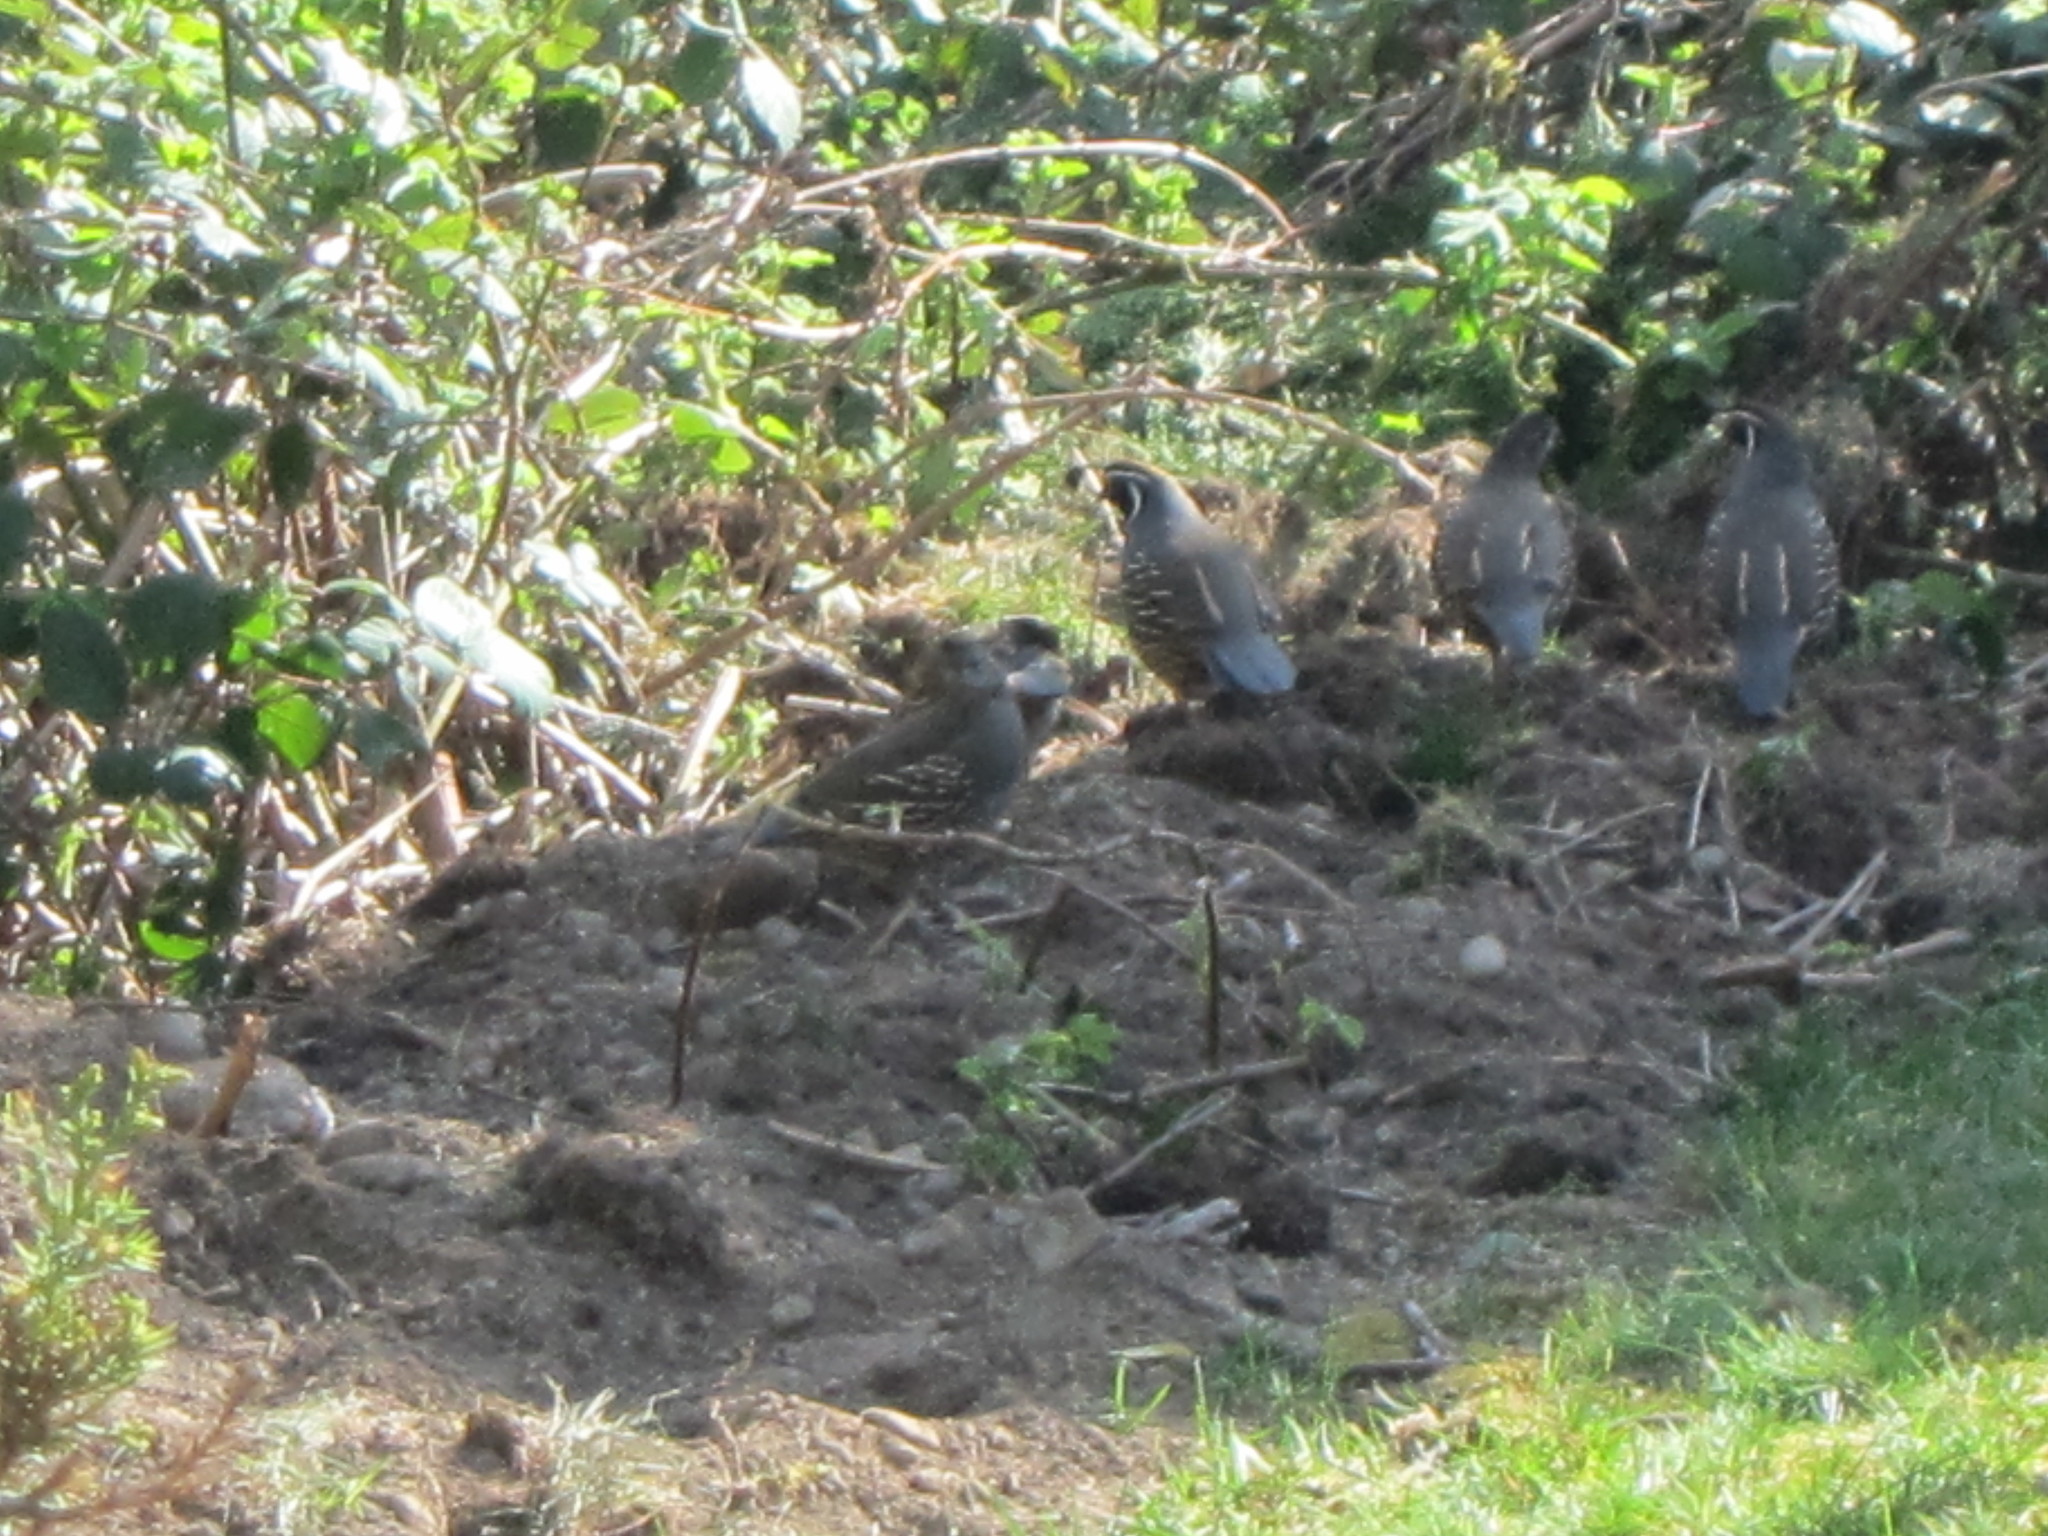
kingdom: Animalia
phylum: Chordata
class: Aves
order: Galliformes
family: Odontophoridae
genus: Callipepla
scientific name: Callipepla californica
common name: California quail
